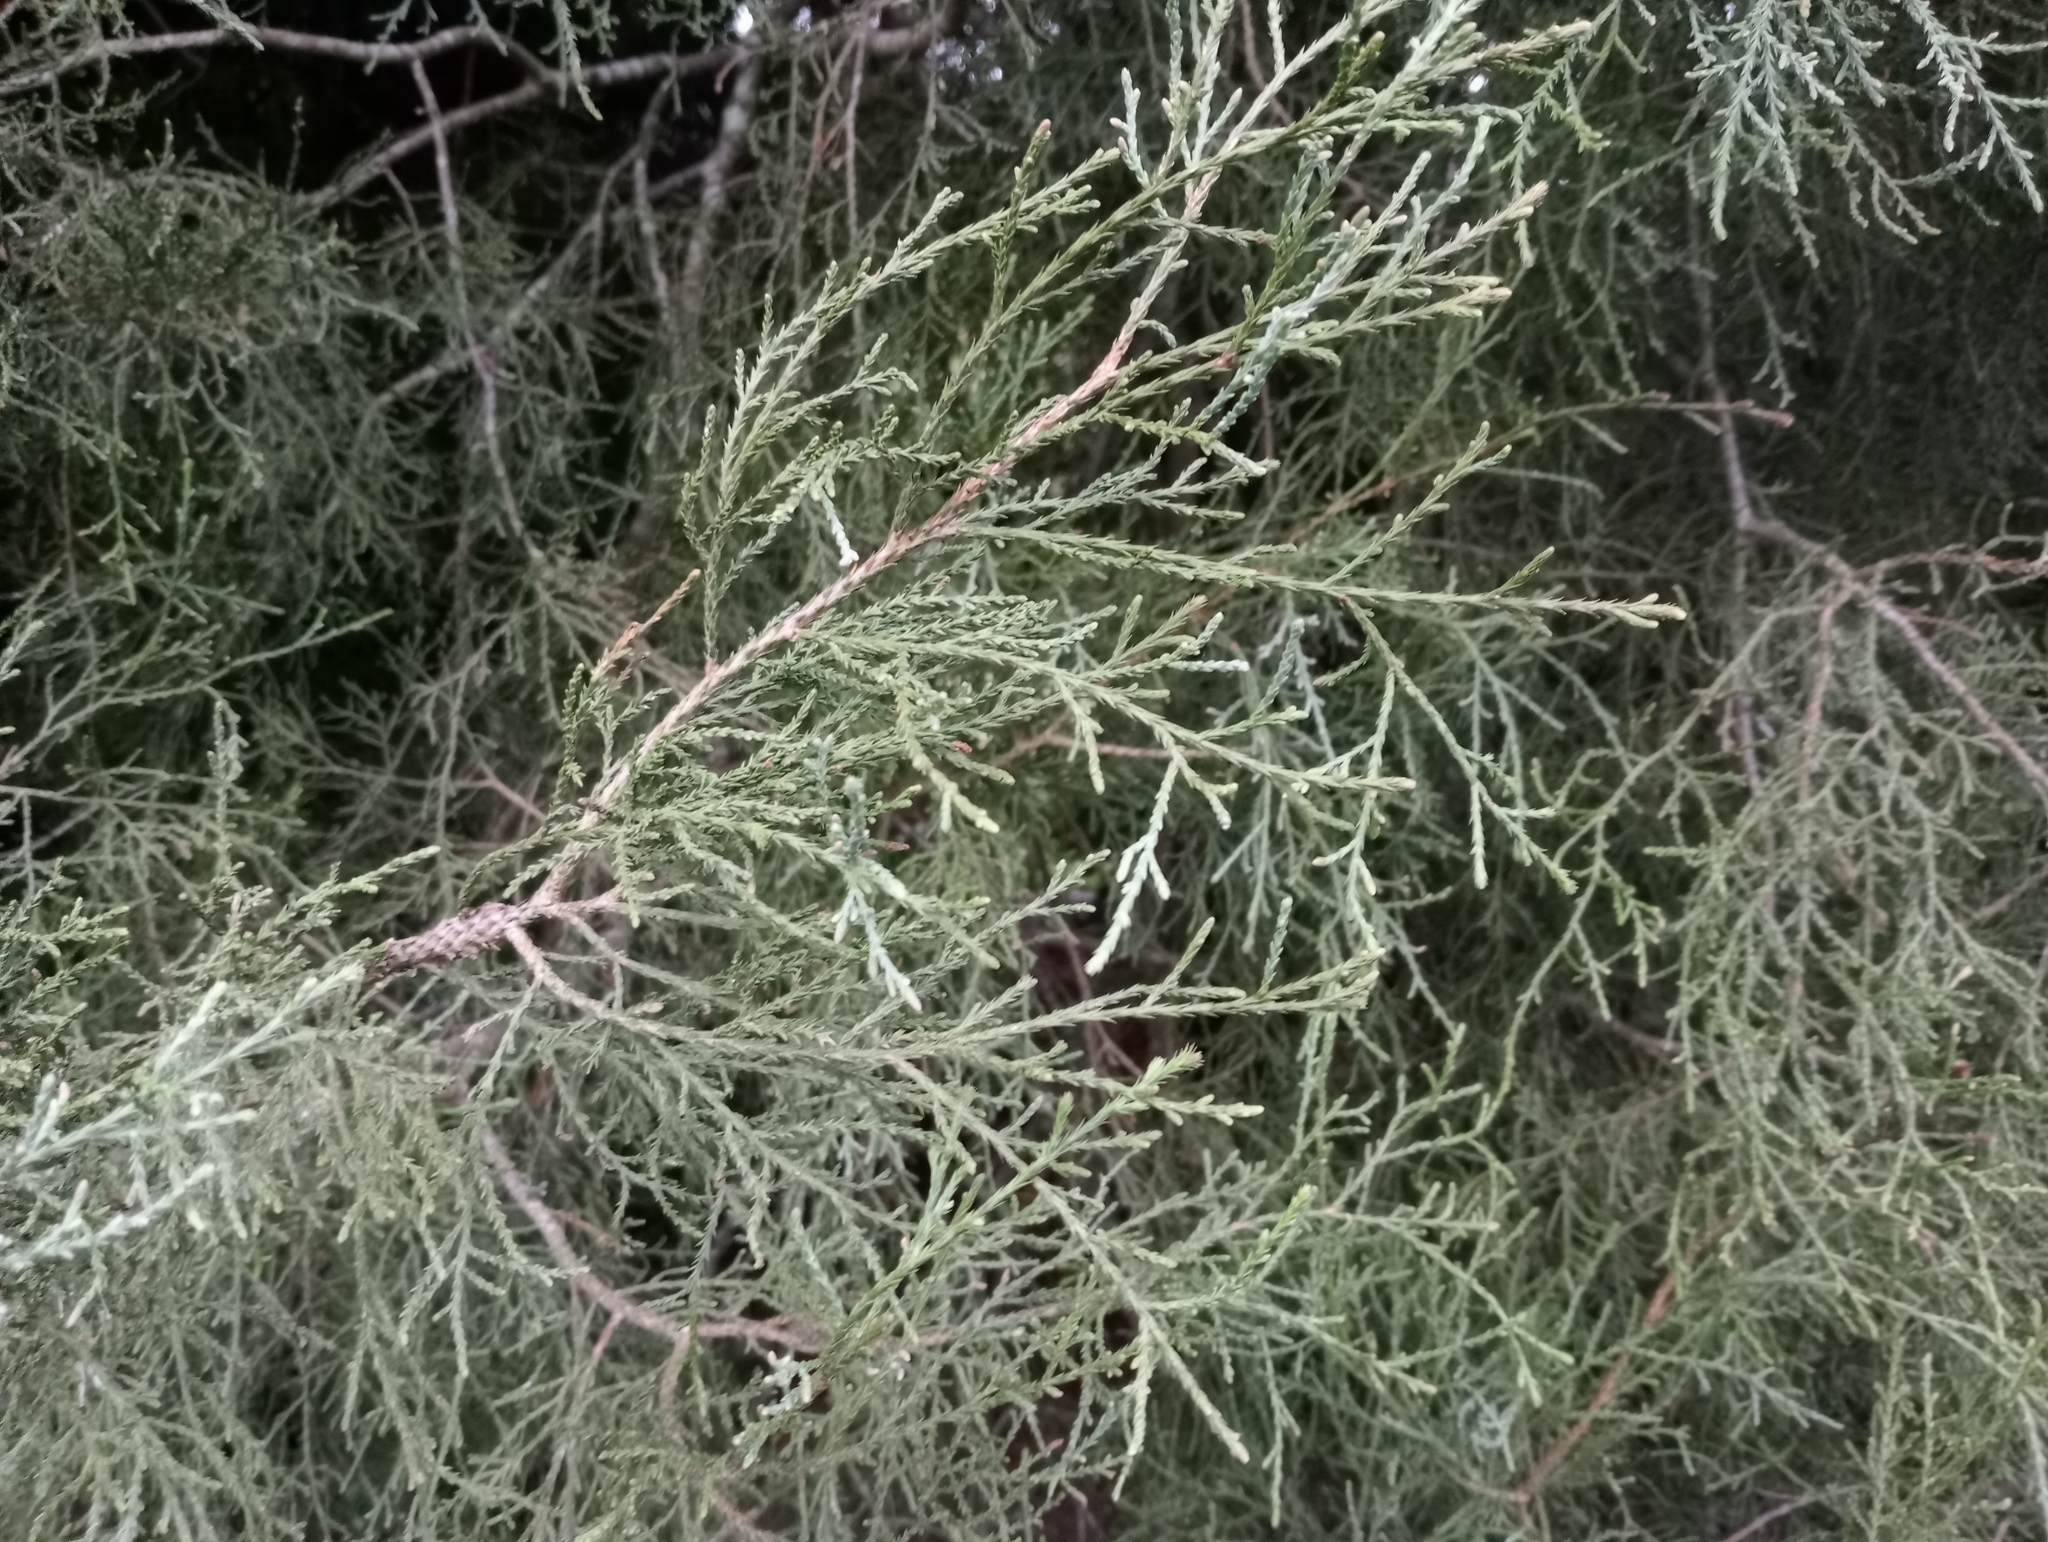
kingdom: Plantae
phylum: Tracheophyta
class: Pinopsida
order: Pinales
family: Podocarpaceae
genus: Dacrycarpus
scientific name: Dacrycarpus dacrydioides
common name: White pine
